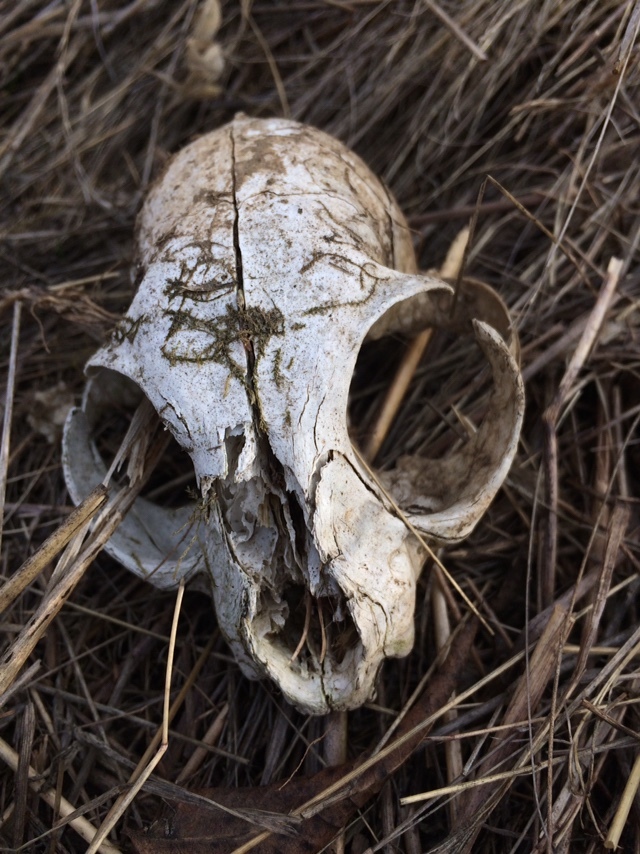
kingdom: Animalia
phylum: Chordata
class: Mammalia
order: Carnivora
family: Felidae
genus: Felis
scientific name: Felis catus
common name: Domestic cat
